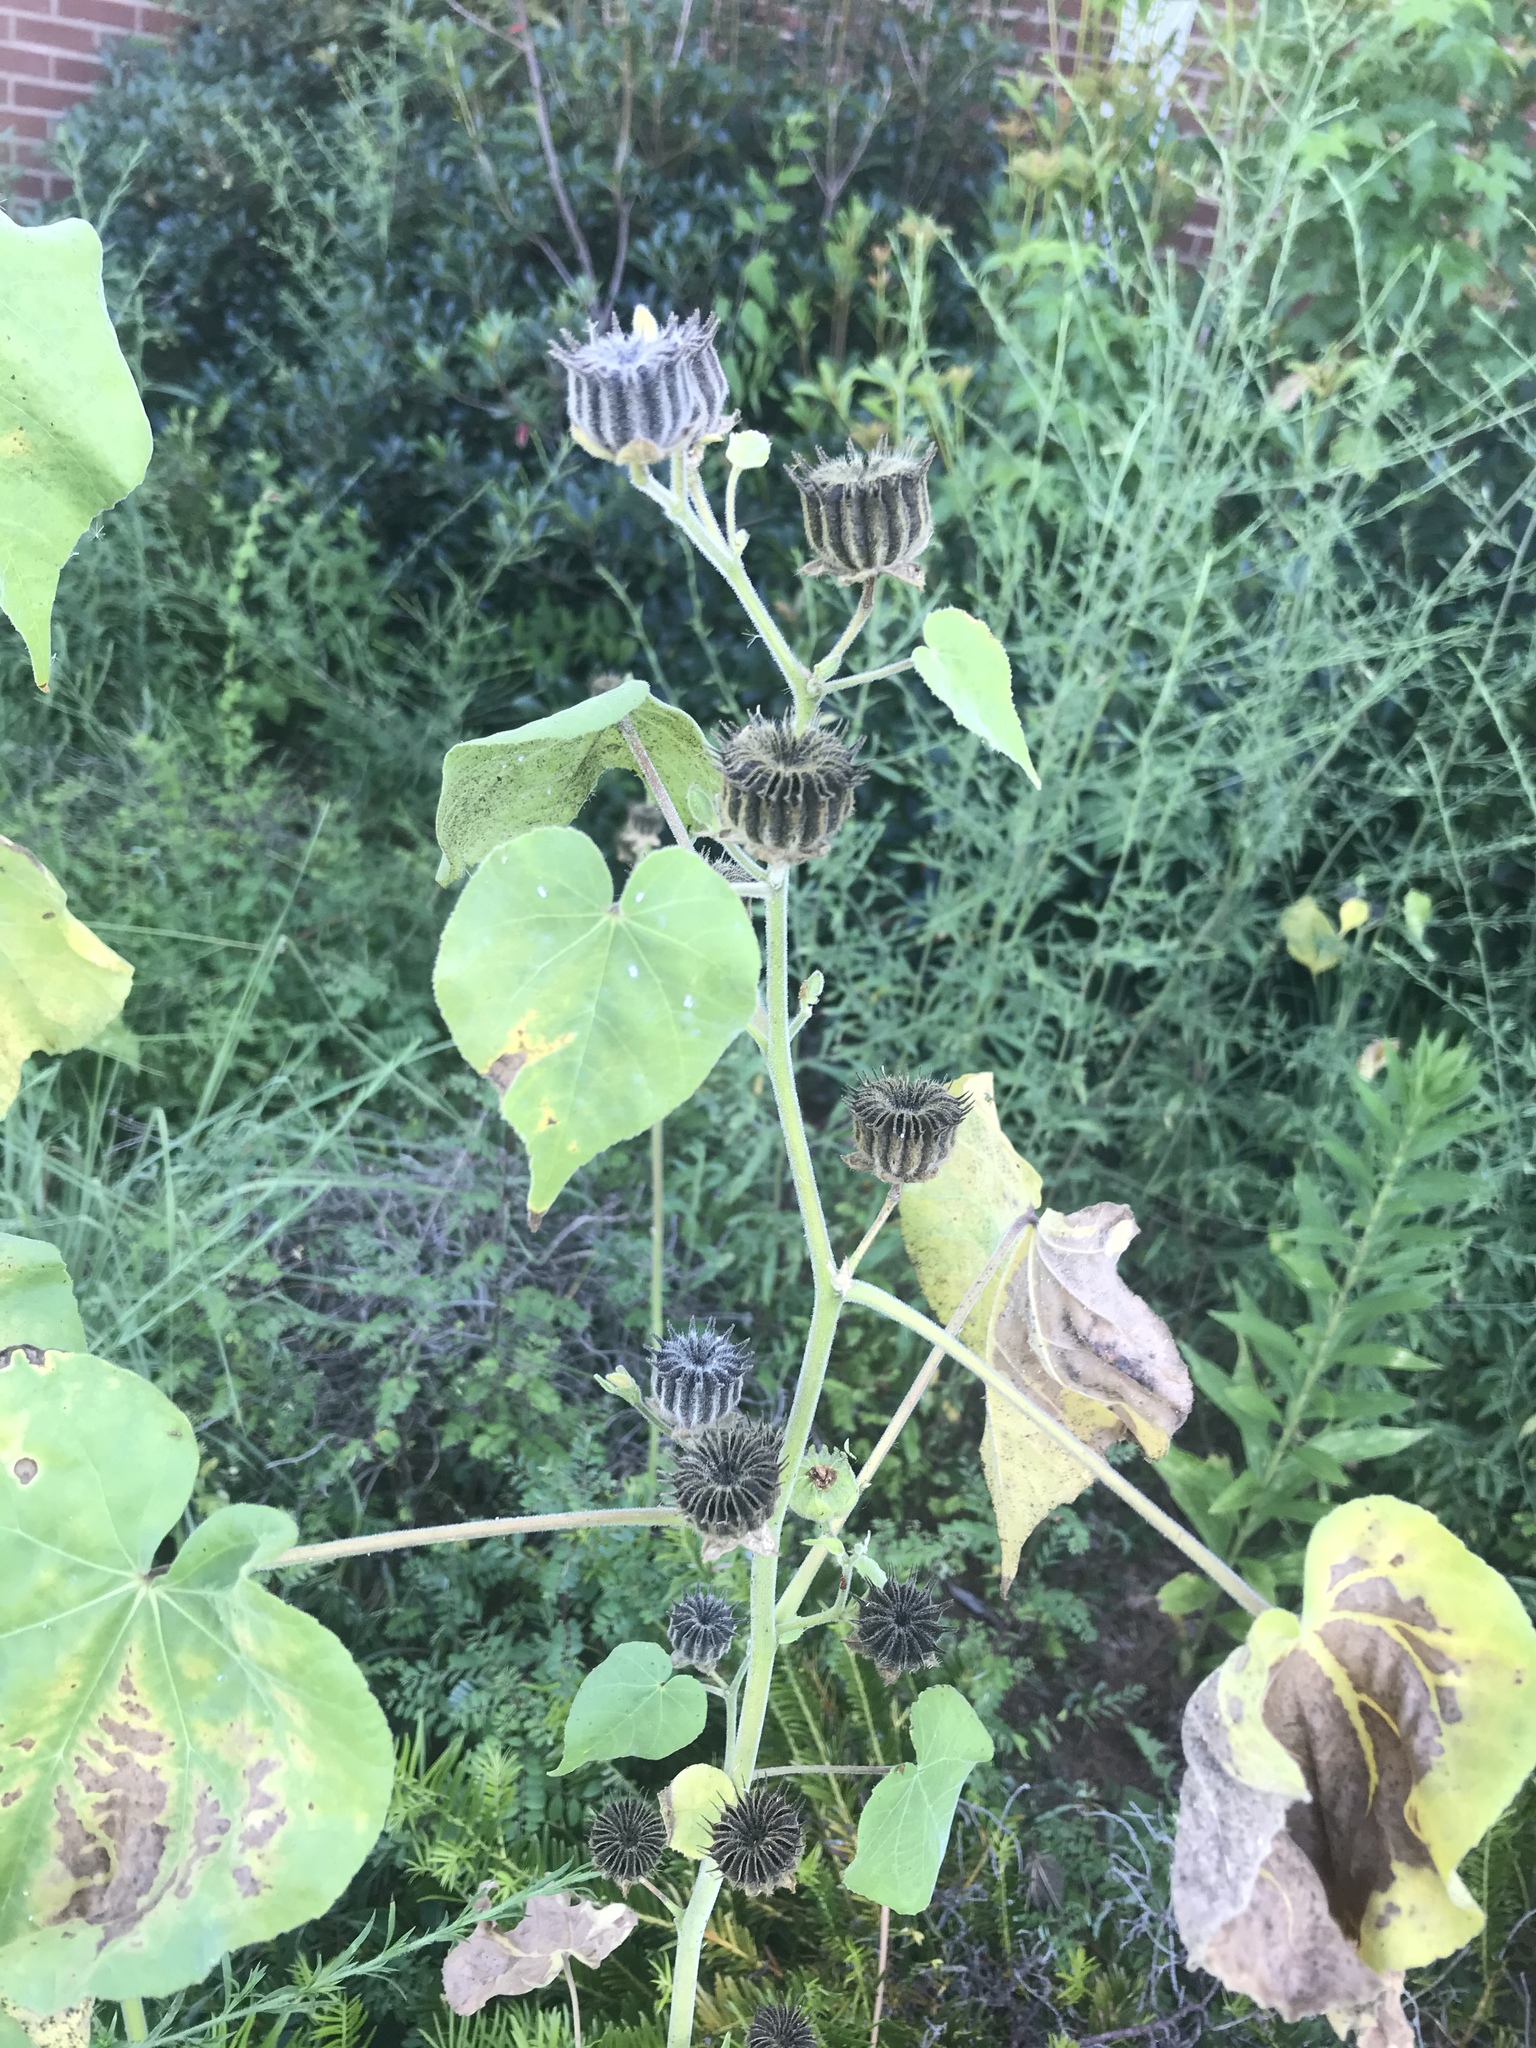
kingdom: Plantae
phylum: Tracheophyta
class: Magnoliopsida
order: Malvales
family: Malvaceae
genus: Abutilon
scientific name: Abutilon theophrasti
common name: Velvetleaf
